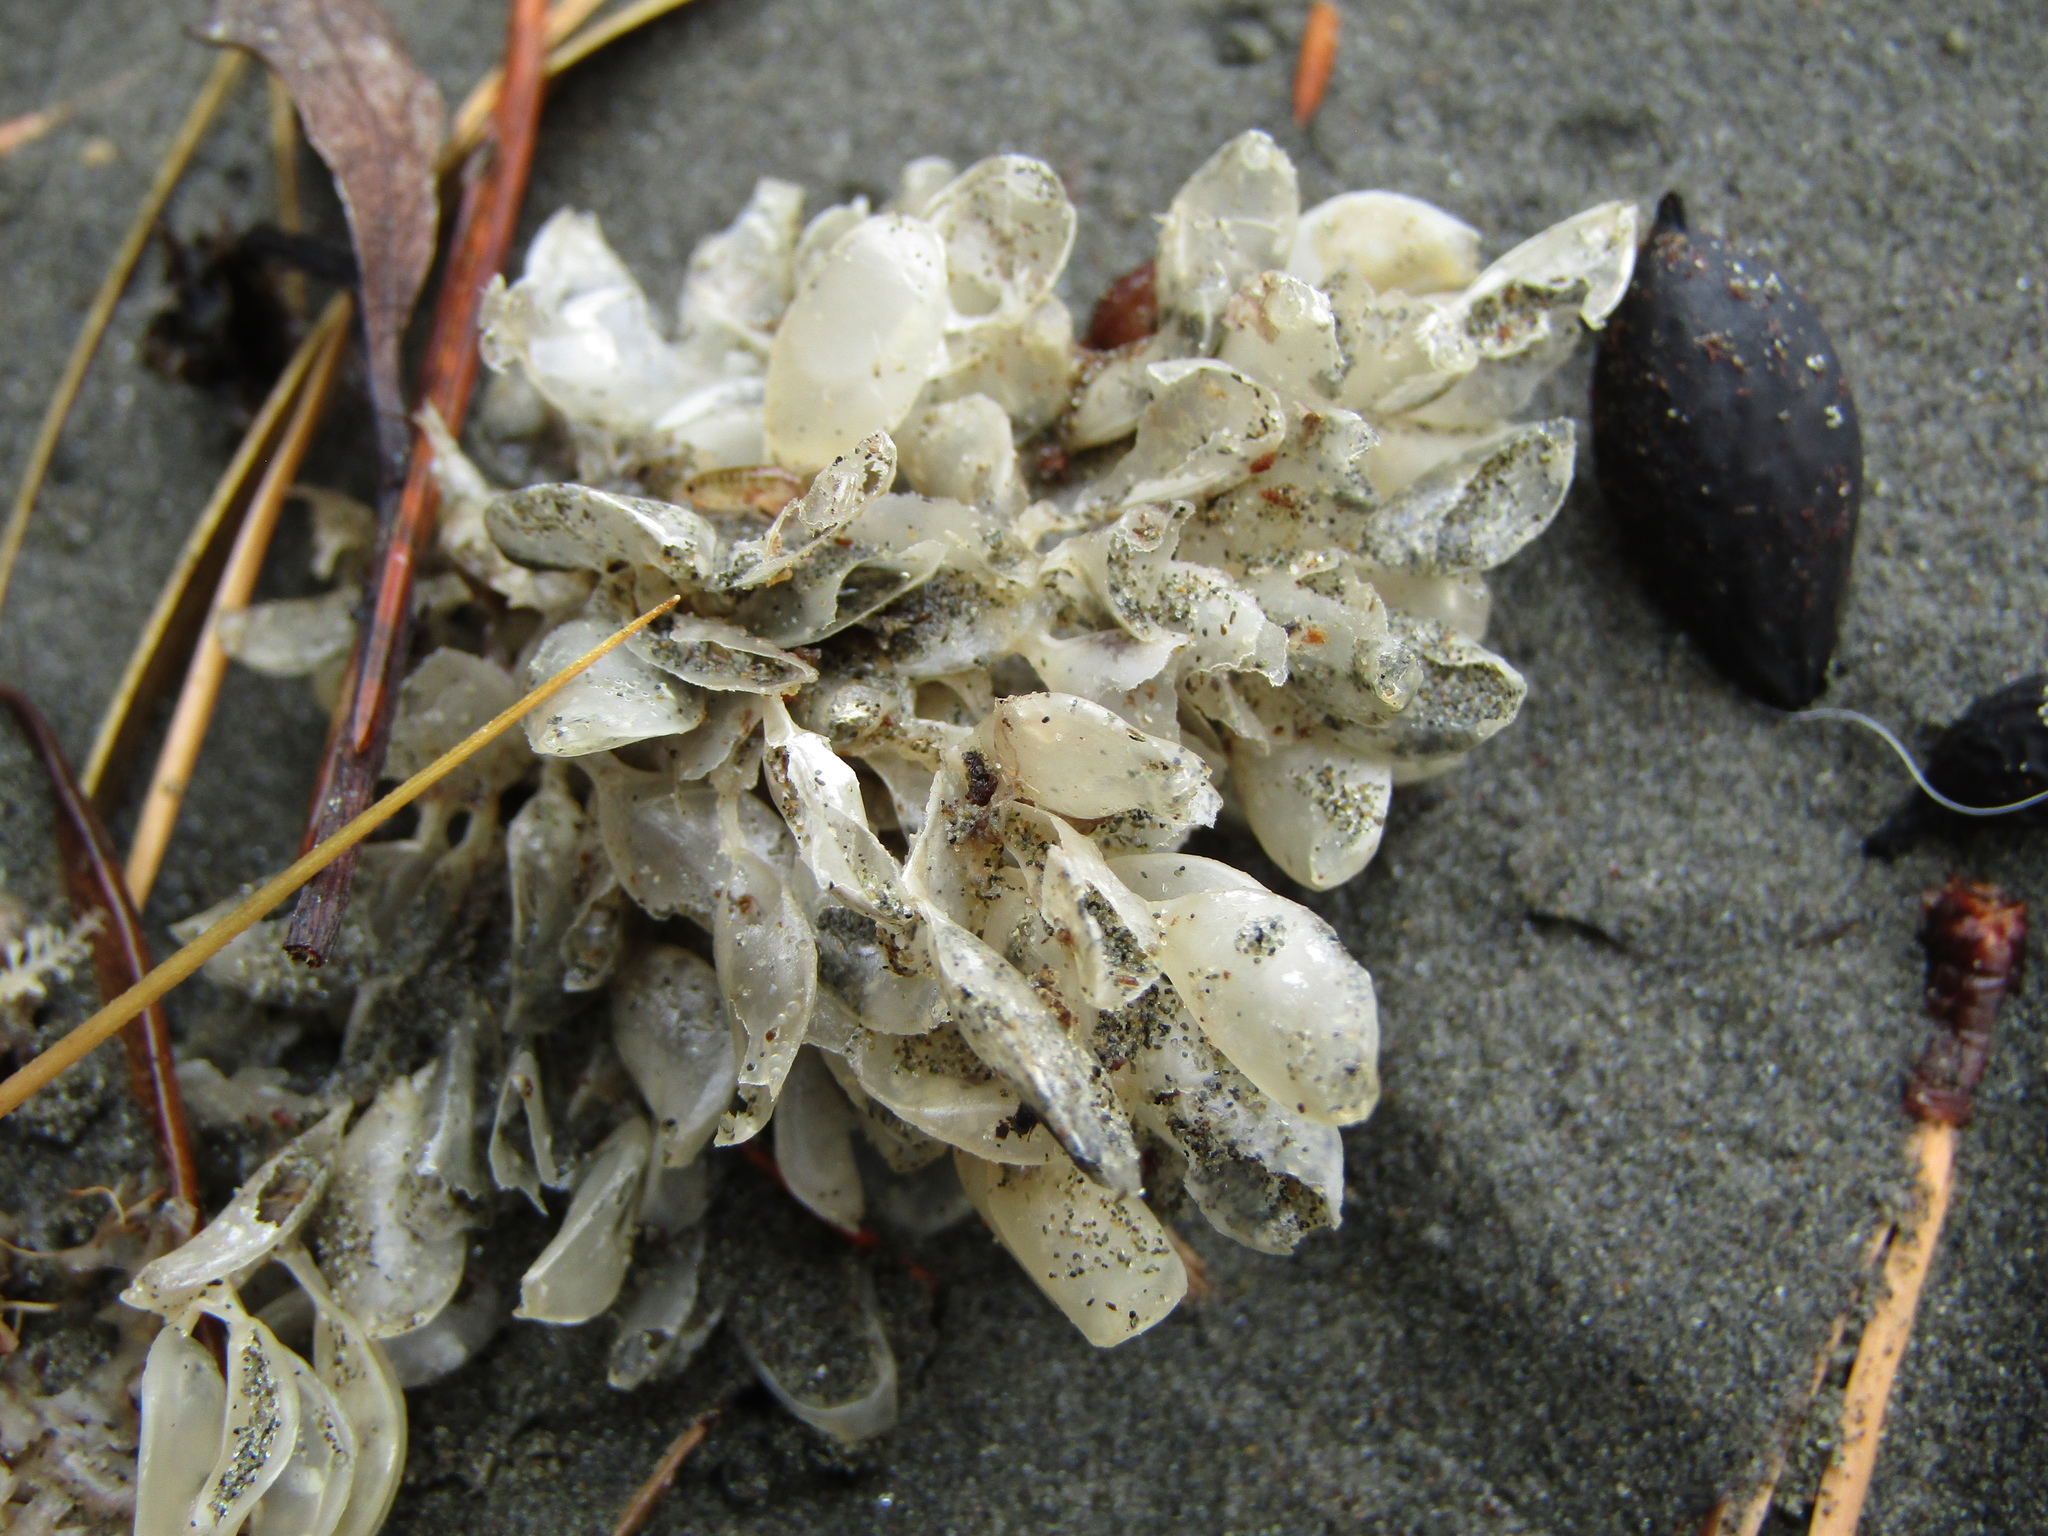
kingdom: Animalia
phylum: Mollusca
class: Gastropoda
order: Neogastropoda
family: Cominellidae
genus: Cominella
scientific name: Cominella adspersa
